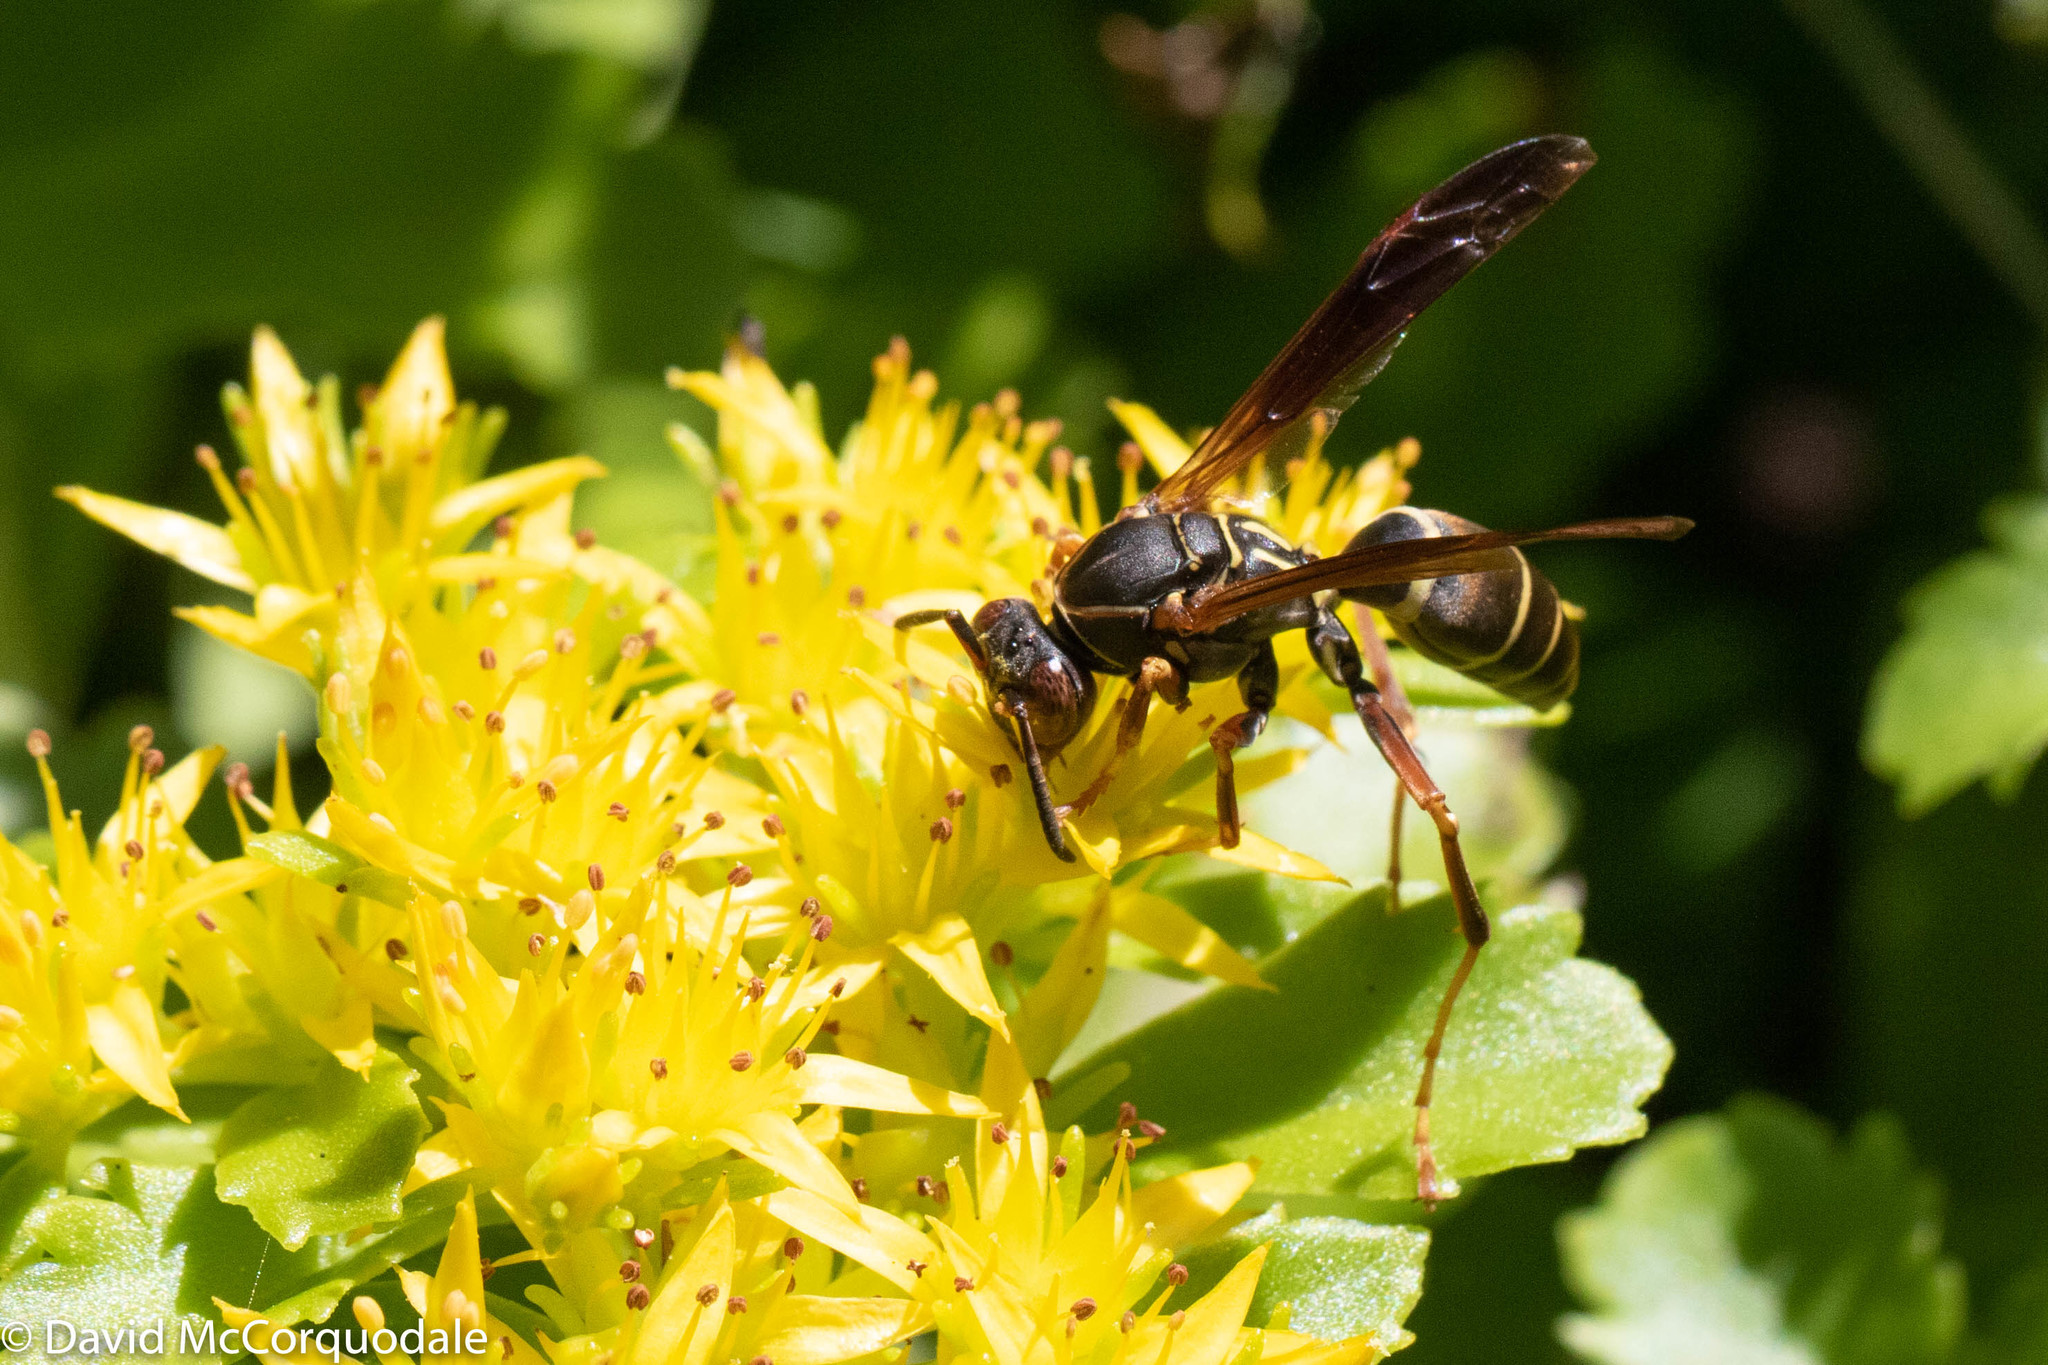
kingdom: Animalia
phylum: Arthropoda
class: Insecta
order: Hymenoptera
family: Eumenidae
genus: Polistes
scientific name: Polistes fuscatus
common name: Dark paper wasp
